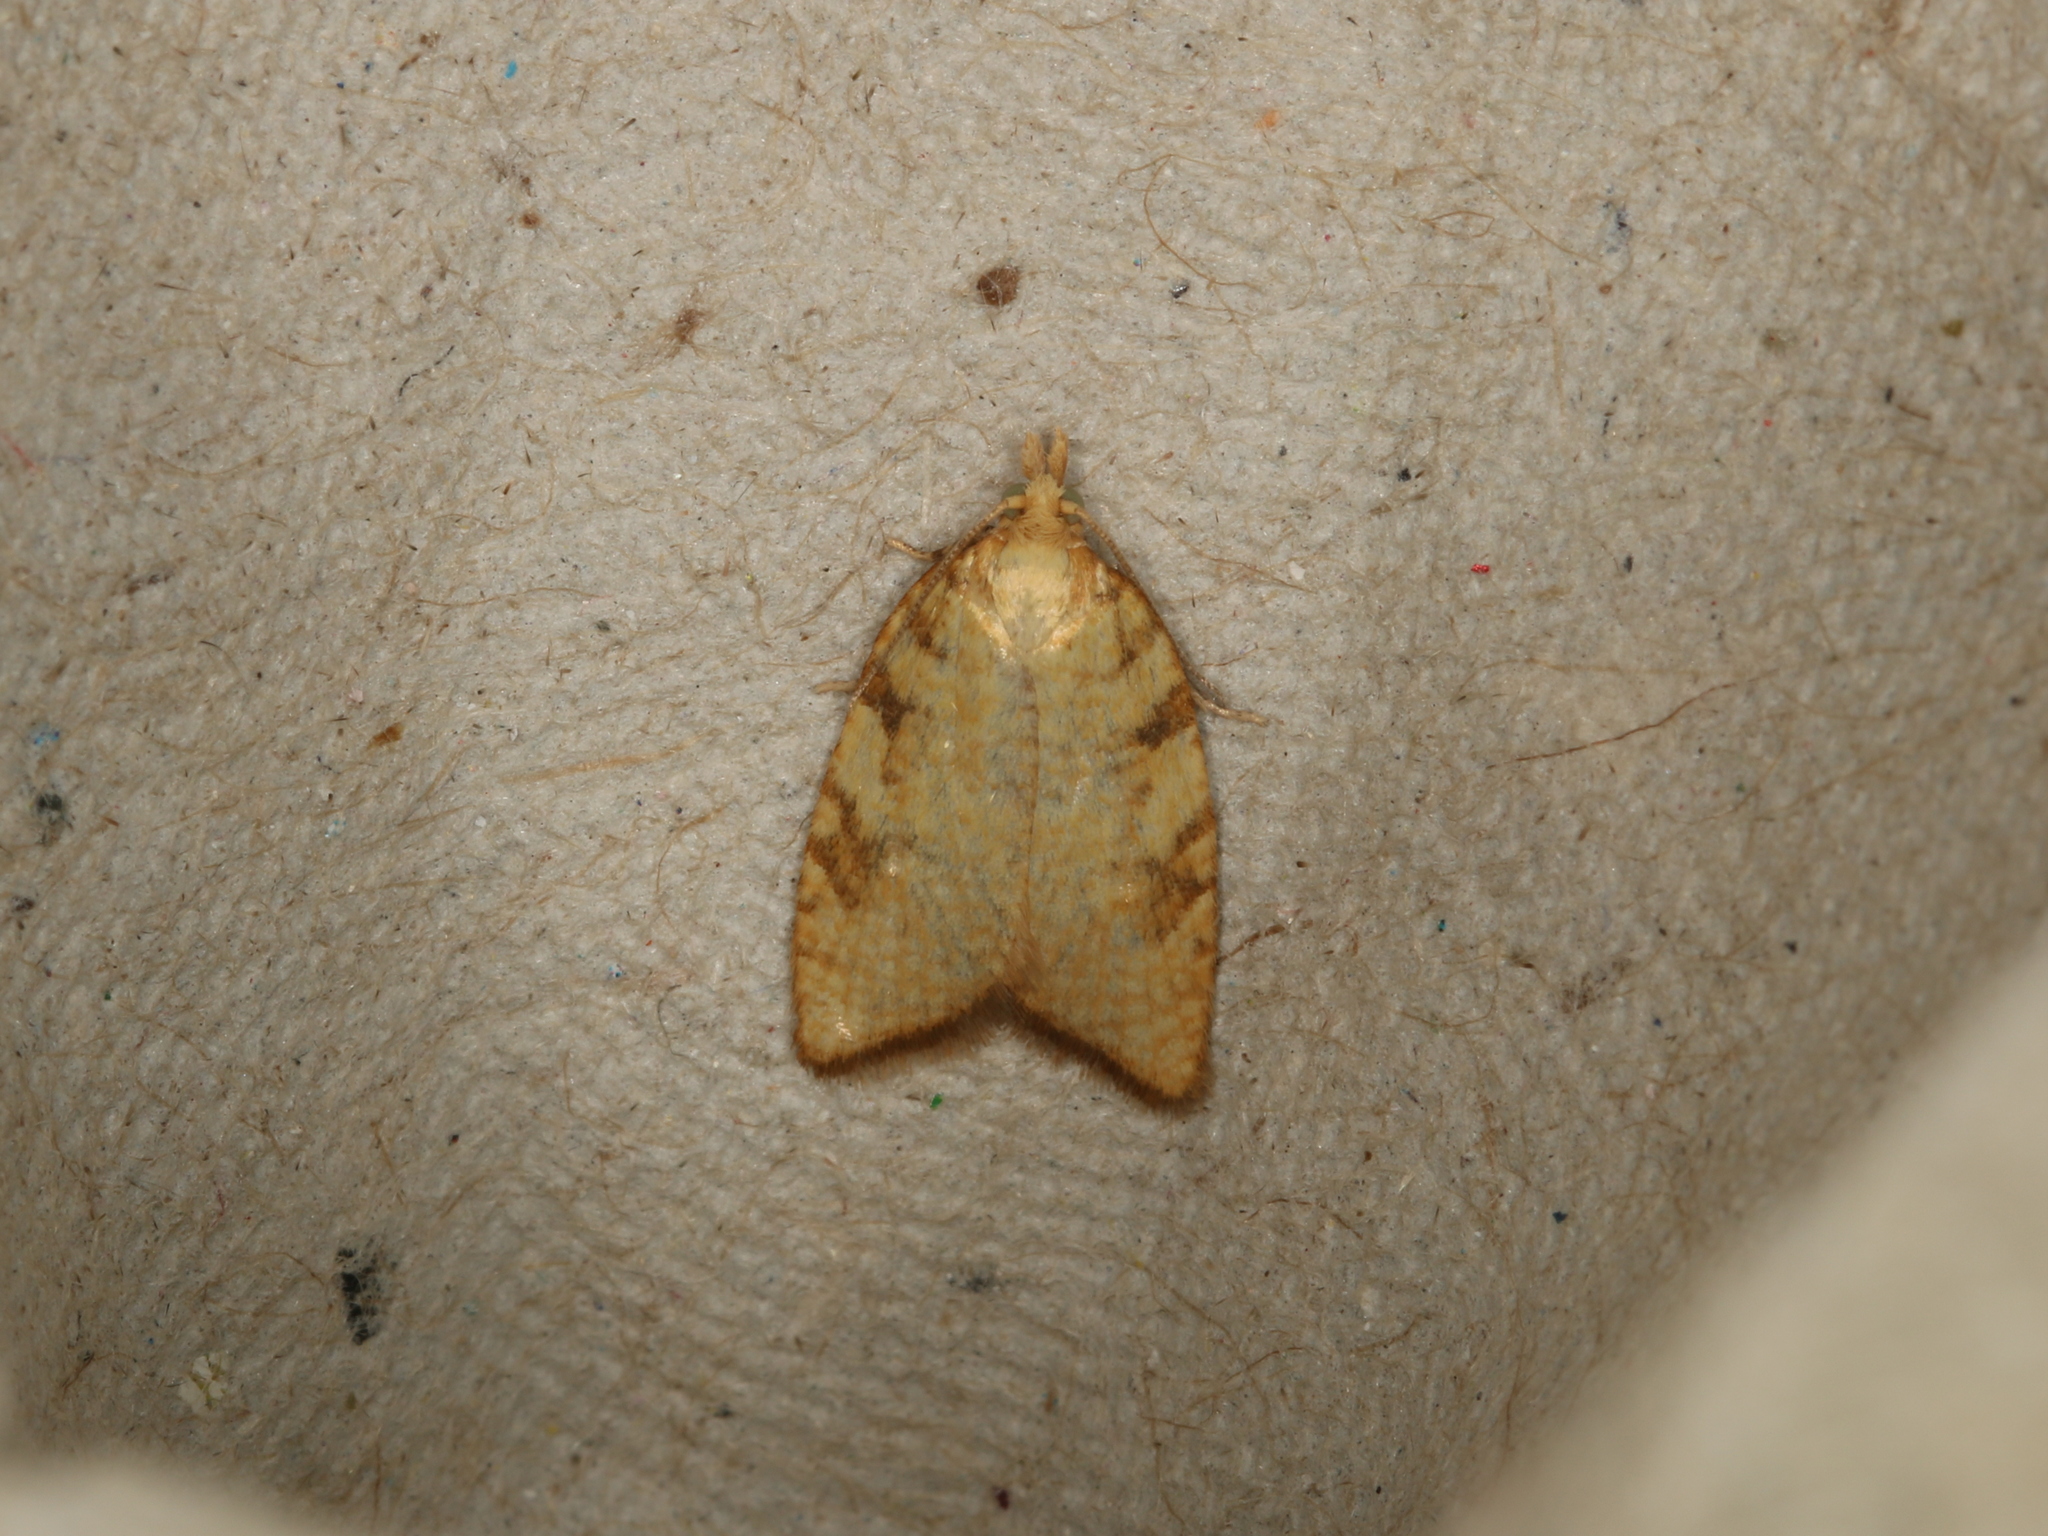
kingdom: Animalia
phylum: Arthropoda
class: Insecta
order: Lepidoptera
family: Tortricidae
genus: Aleimma
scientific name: Aleimma loeflingiana
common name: Yellow oak button
